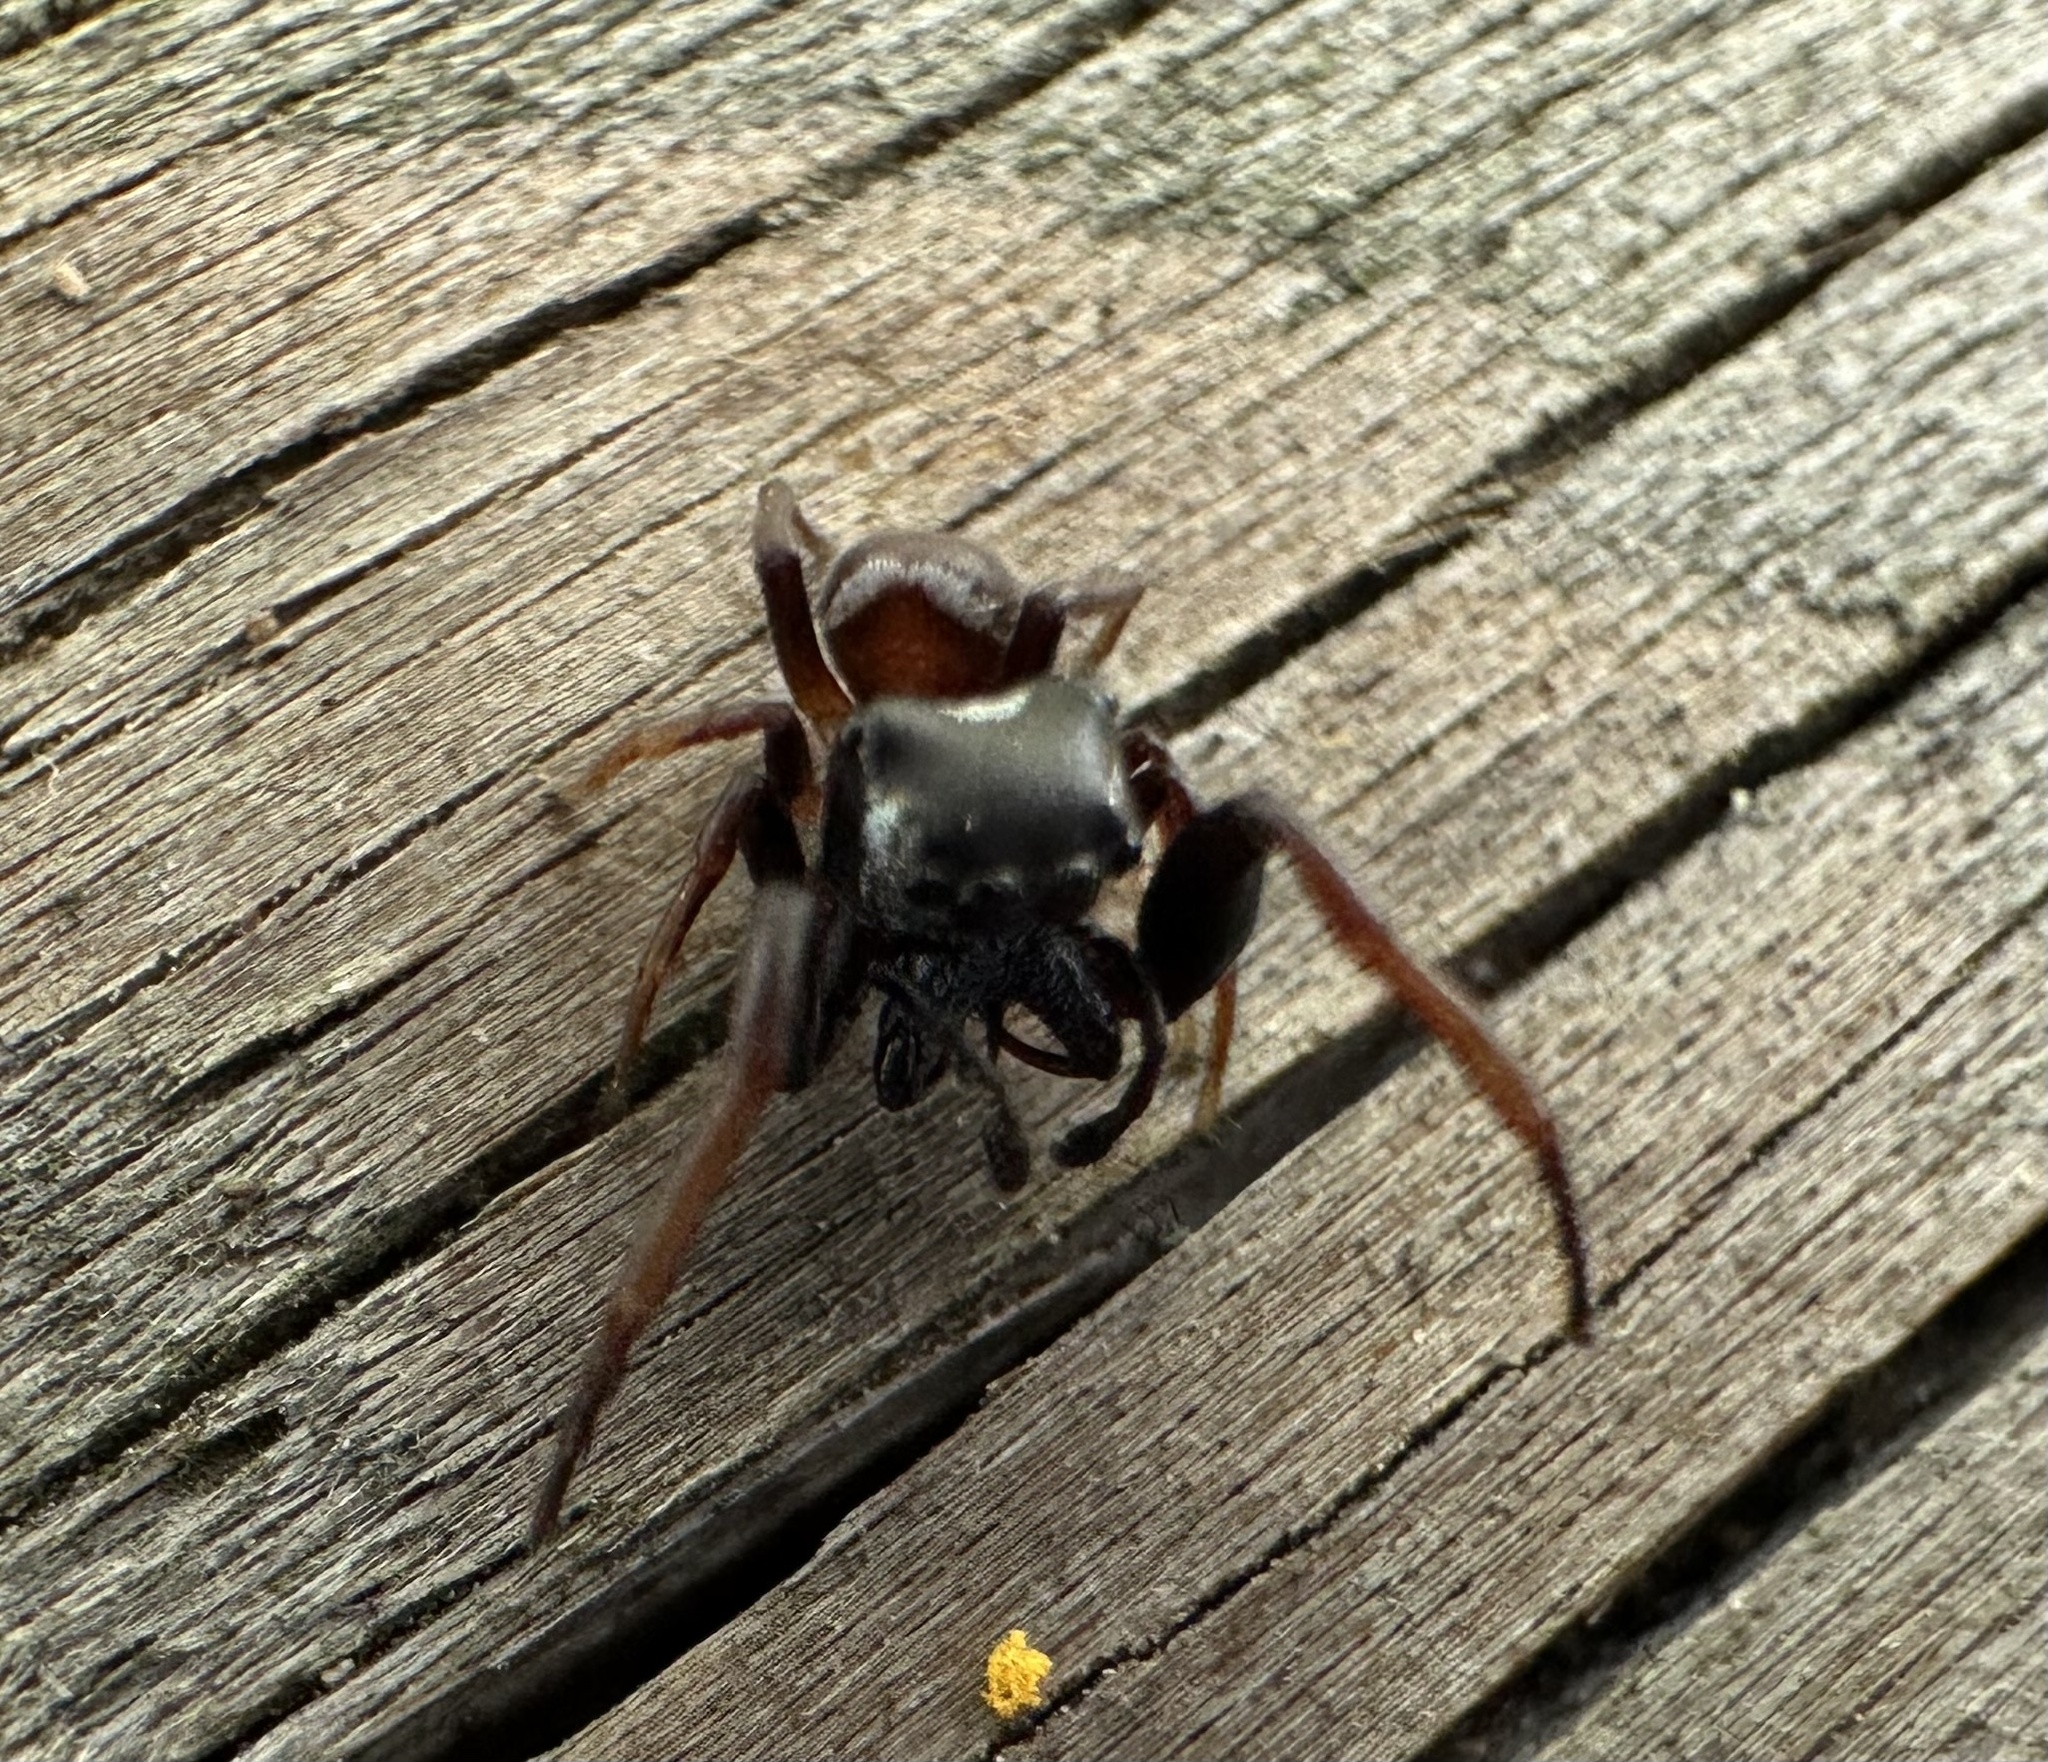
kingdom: Animalia
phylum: Arthropoda
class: Arachnida
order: Araneae
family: Salticidae
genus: Zygoballus
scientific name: Zygoballus sexpunctatus
